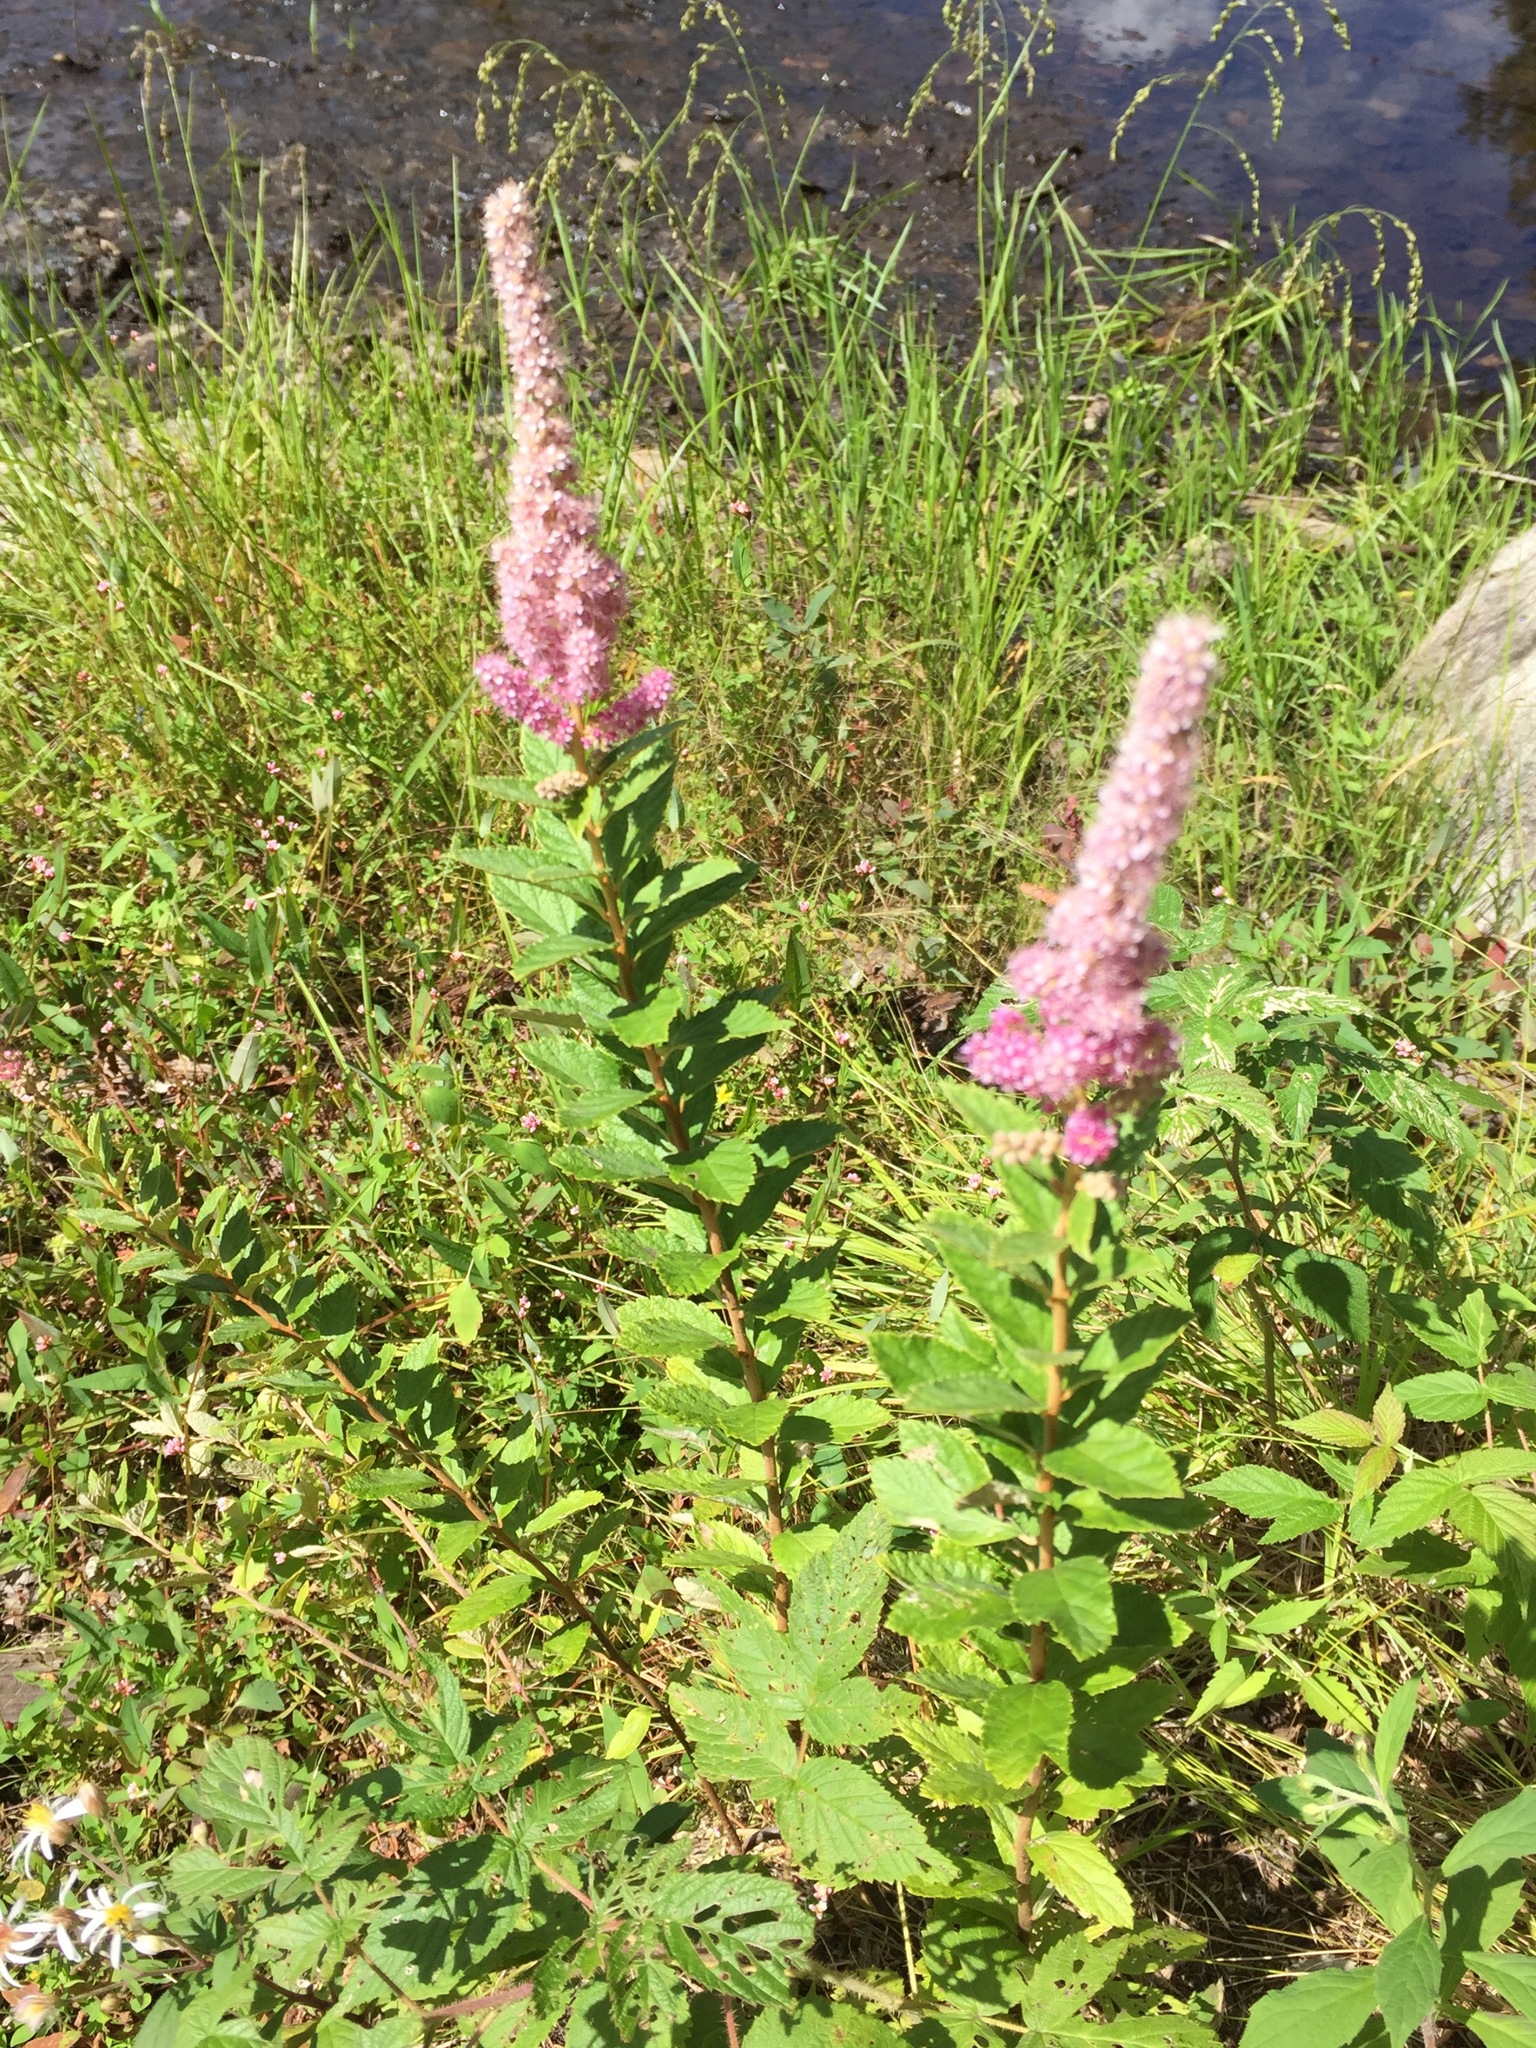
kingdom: Plantae
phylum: Tracheophyta
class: Magnoliopsida
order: Rosales
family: Rosaceae
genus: Spiraea
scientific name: Spiraea tomentosa
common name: Hardhack
